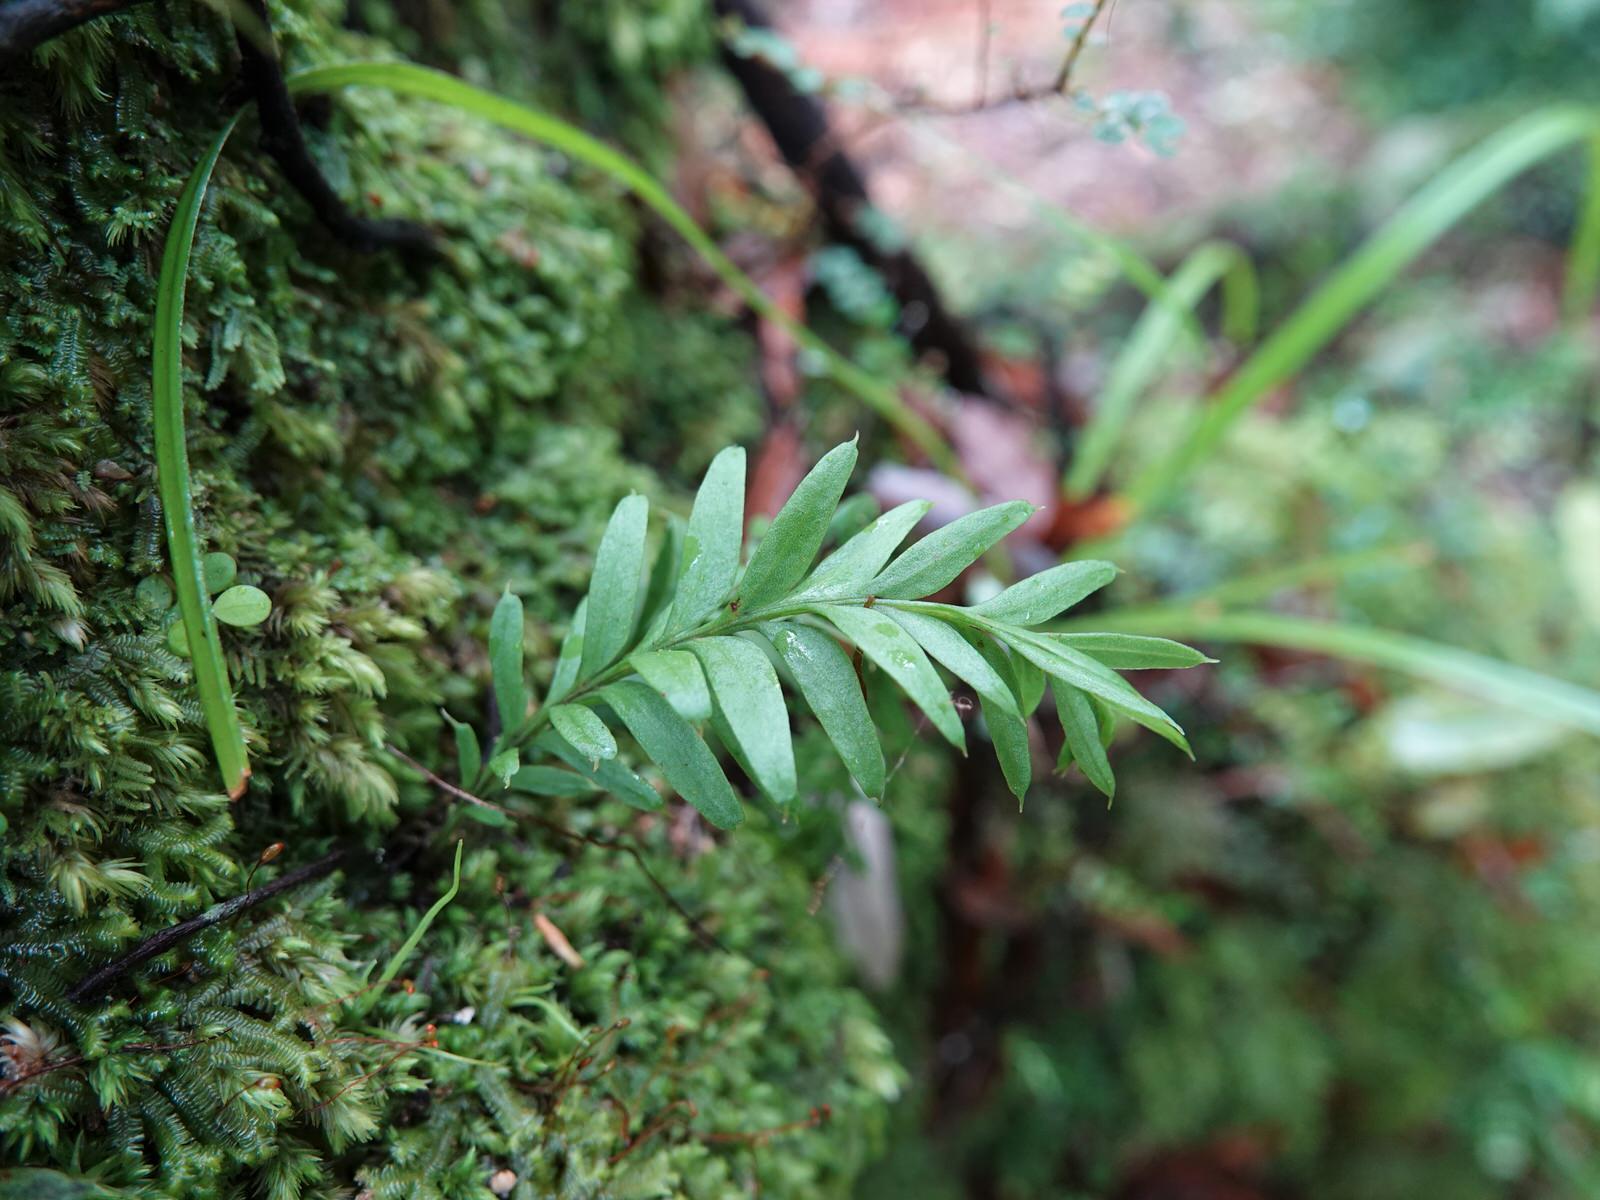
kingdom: Plantae
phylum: Tracheophyta
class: Polypodiopsida
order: Psilotales
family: Psilotaceae
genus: Tmesipteris
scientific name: Tmesipteris elongata
